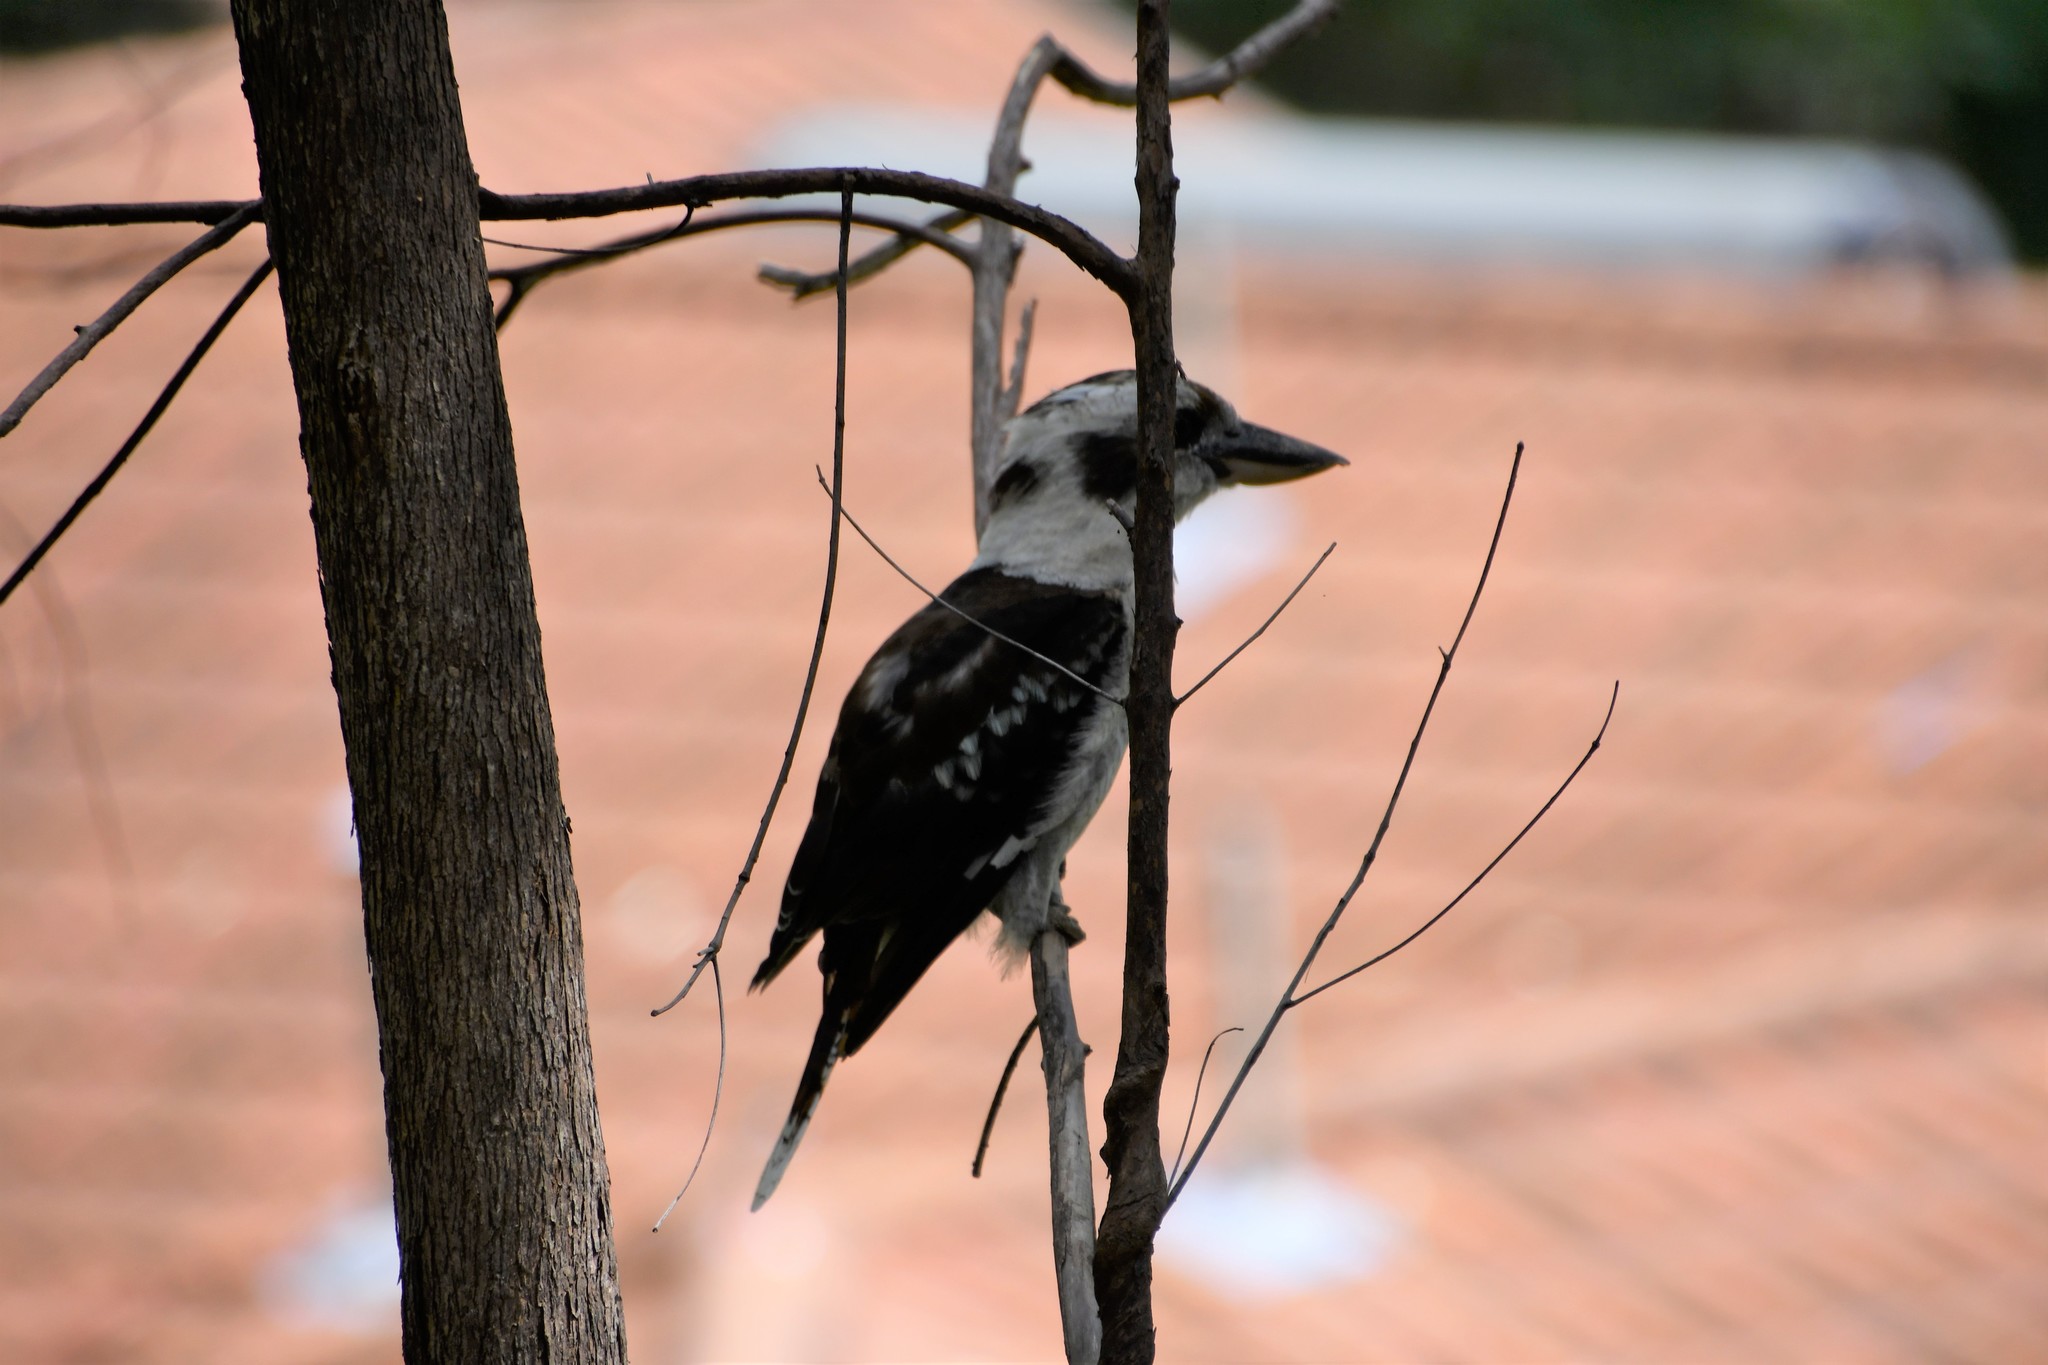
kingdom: Animalia
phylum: Chordata
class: Aves
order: Coraciiformes
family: Alcedinidae
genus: Dacelo
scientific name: Dacelo novaeguineae
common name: Laughing kookaburra
